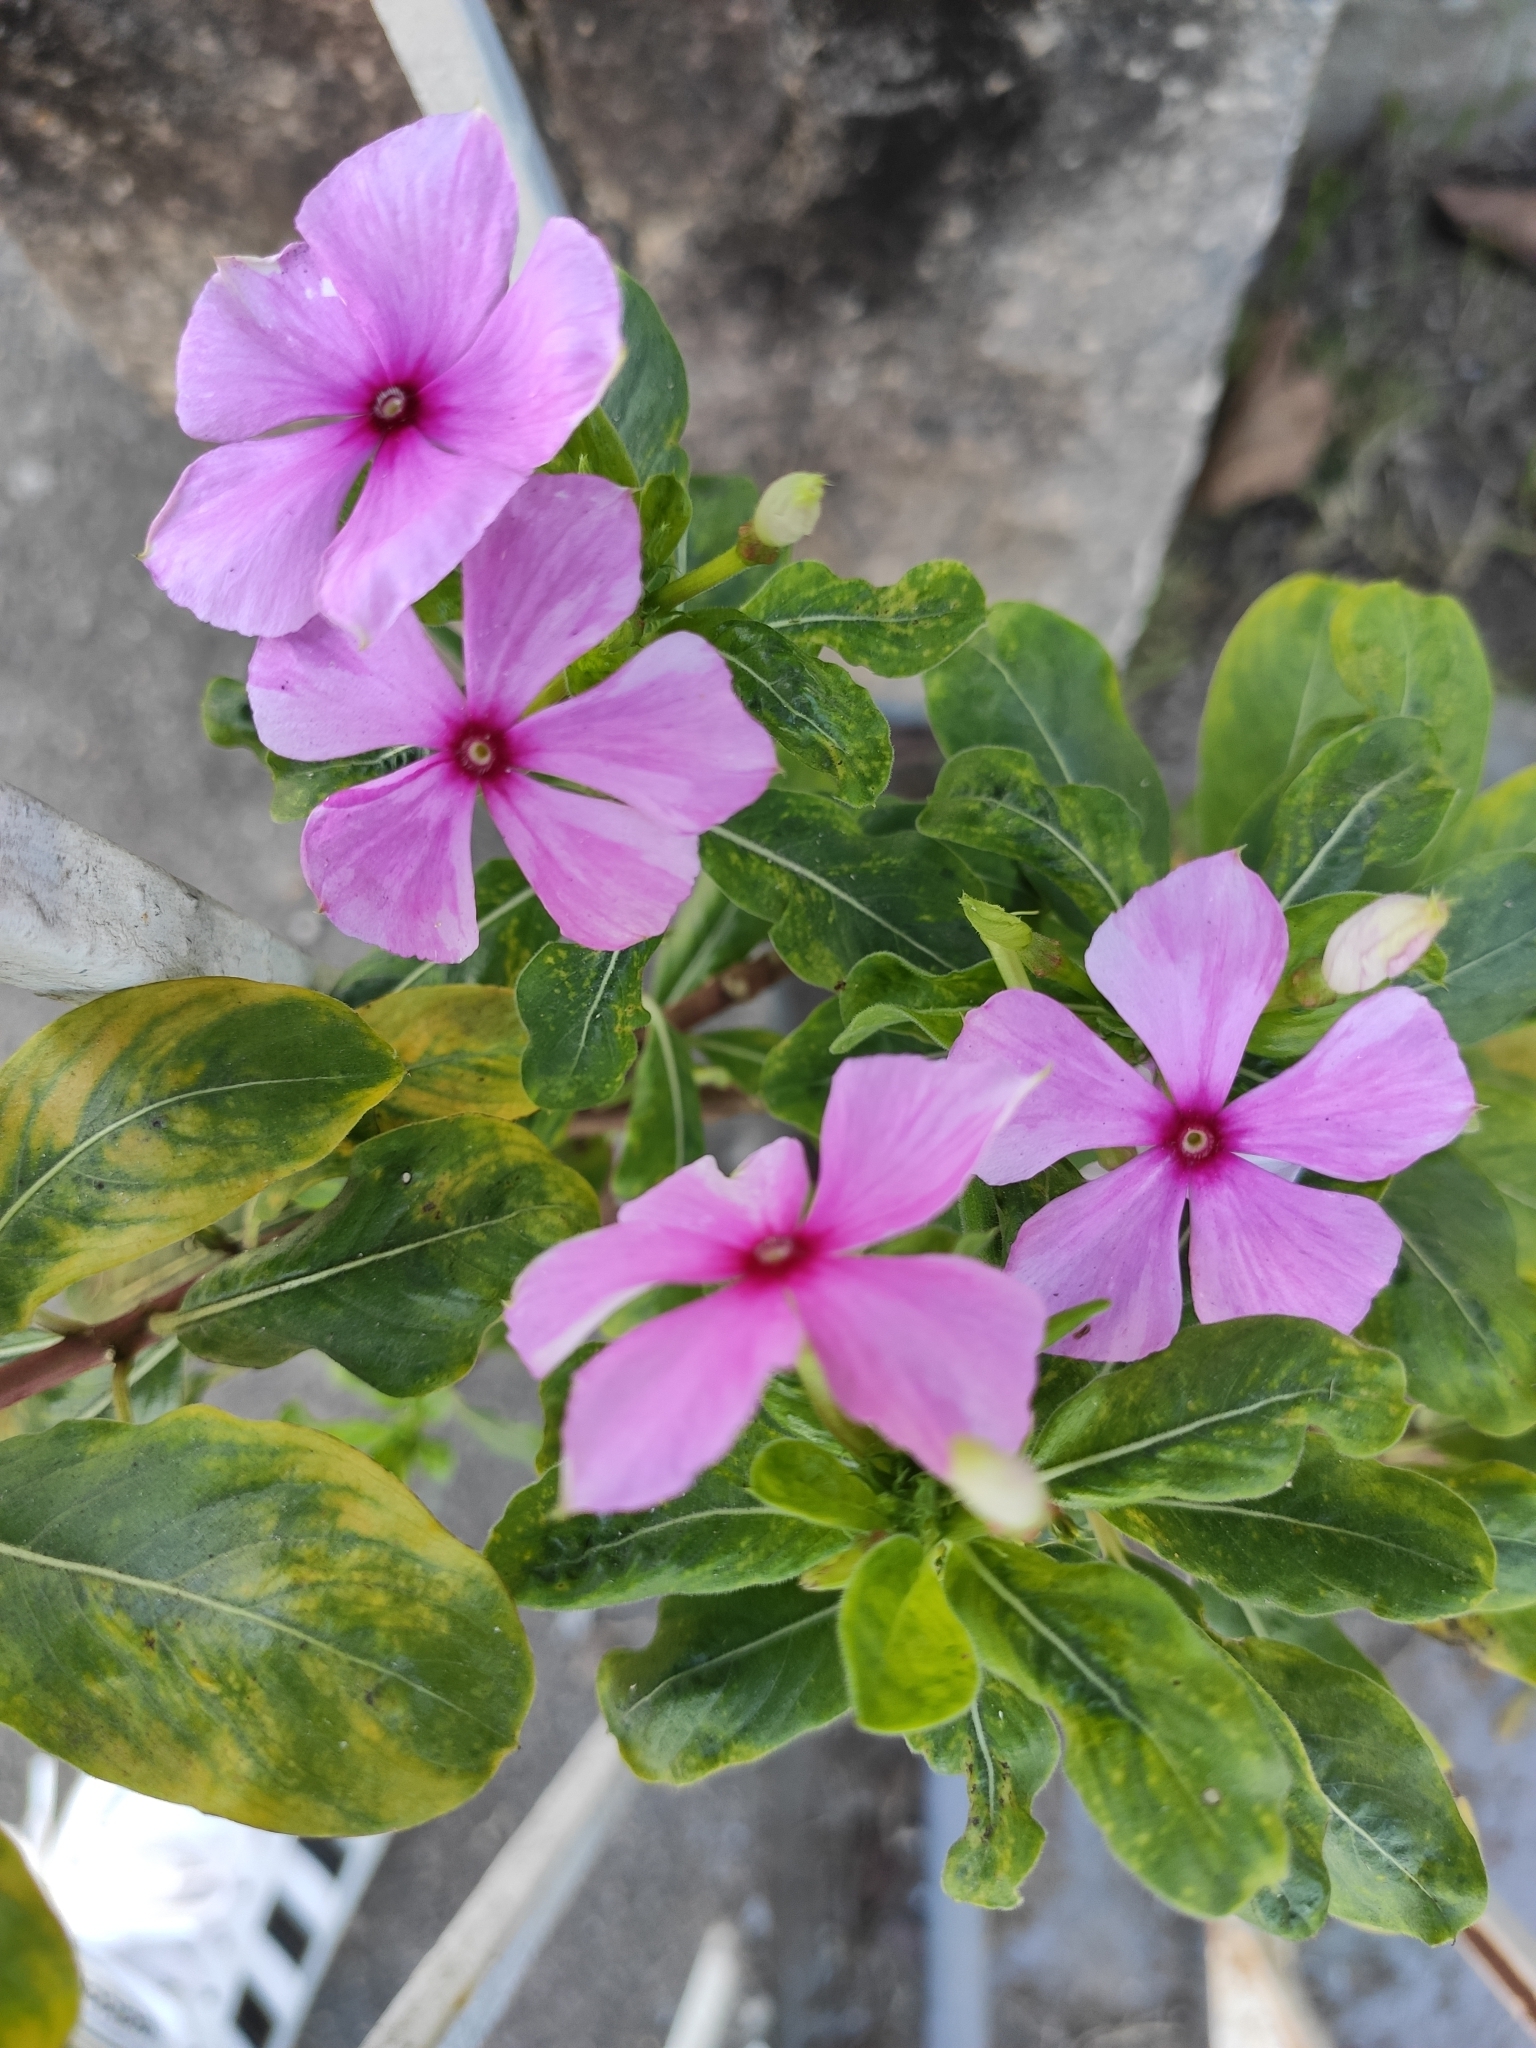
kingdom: Plantae
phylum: Tracheophyta
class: Magnoliopsida
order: Gentianales
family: Apocynaceae
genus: Catharanthus
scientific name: Catharanthus roseus
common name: Madagascar periwinkle
